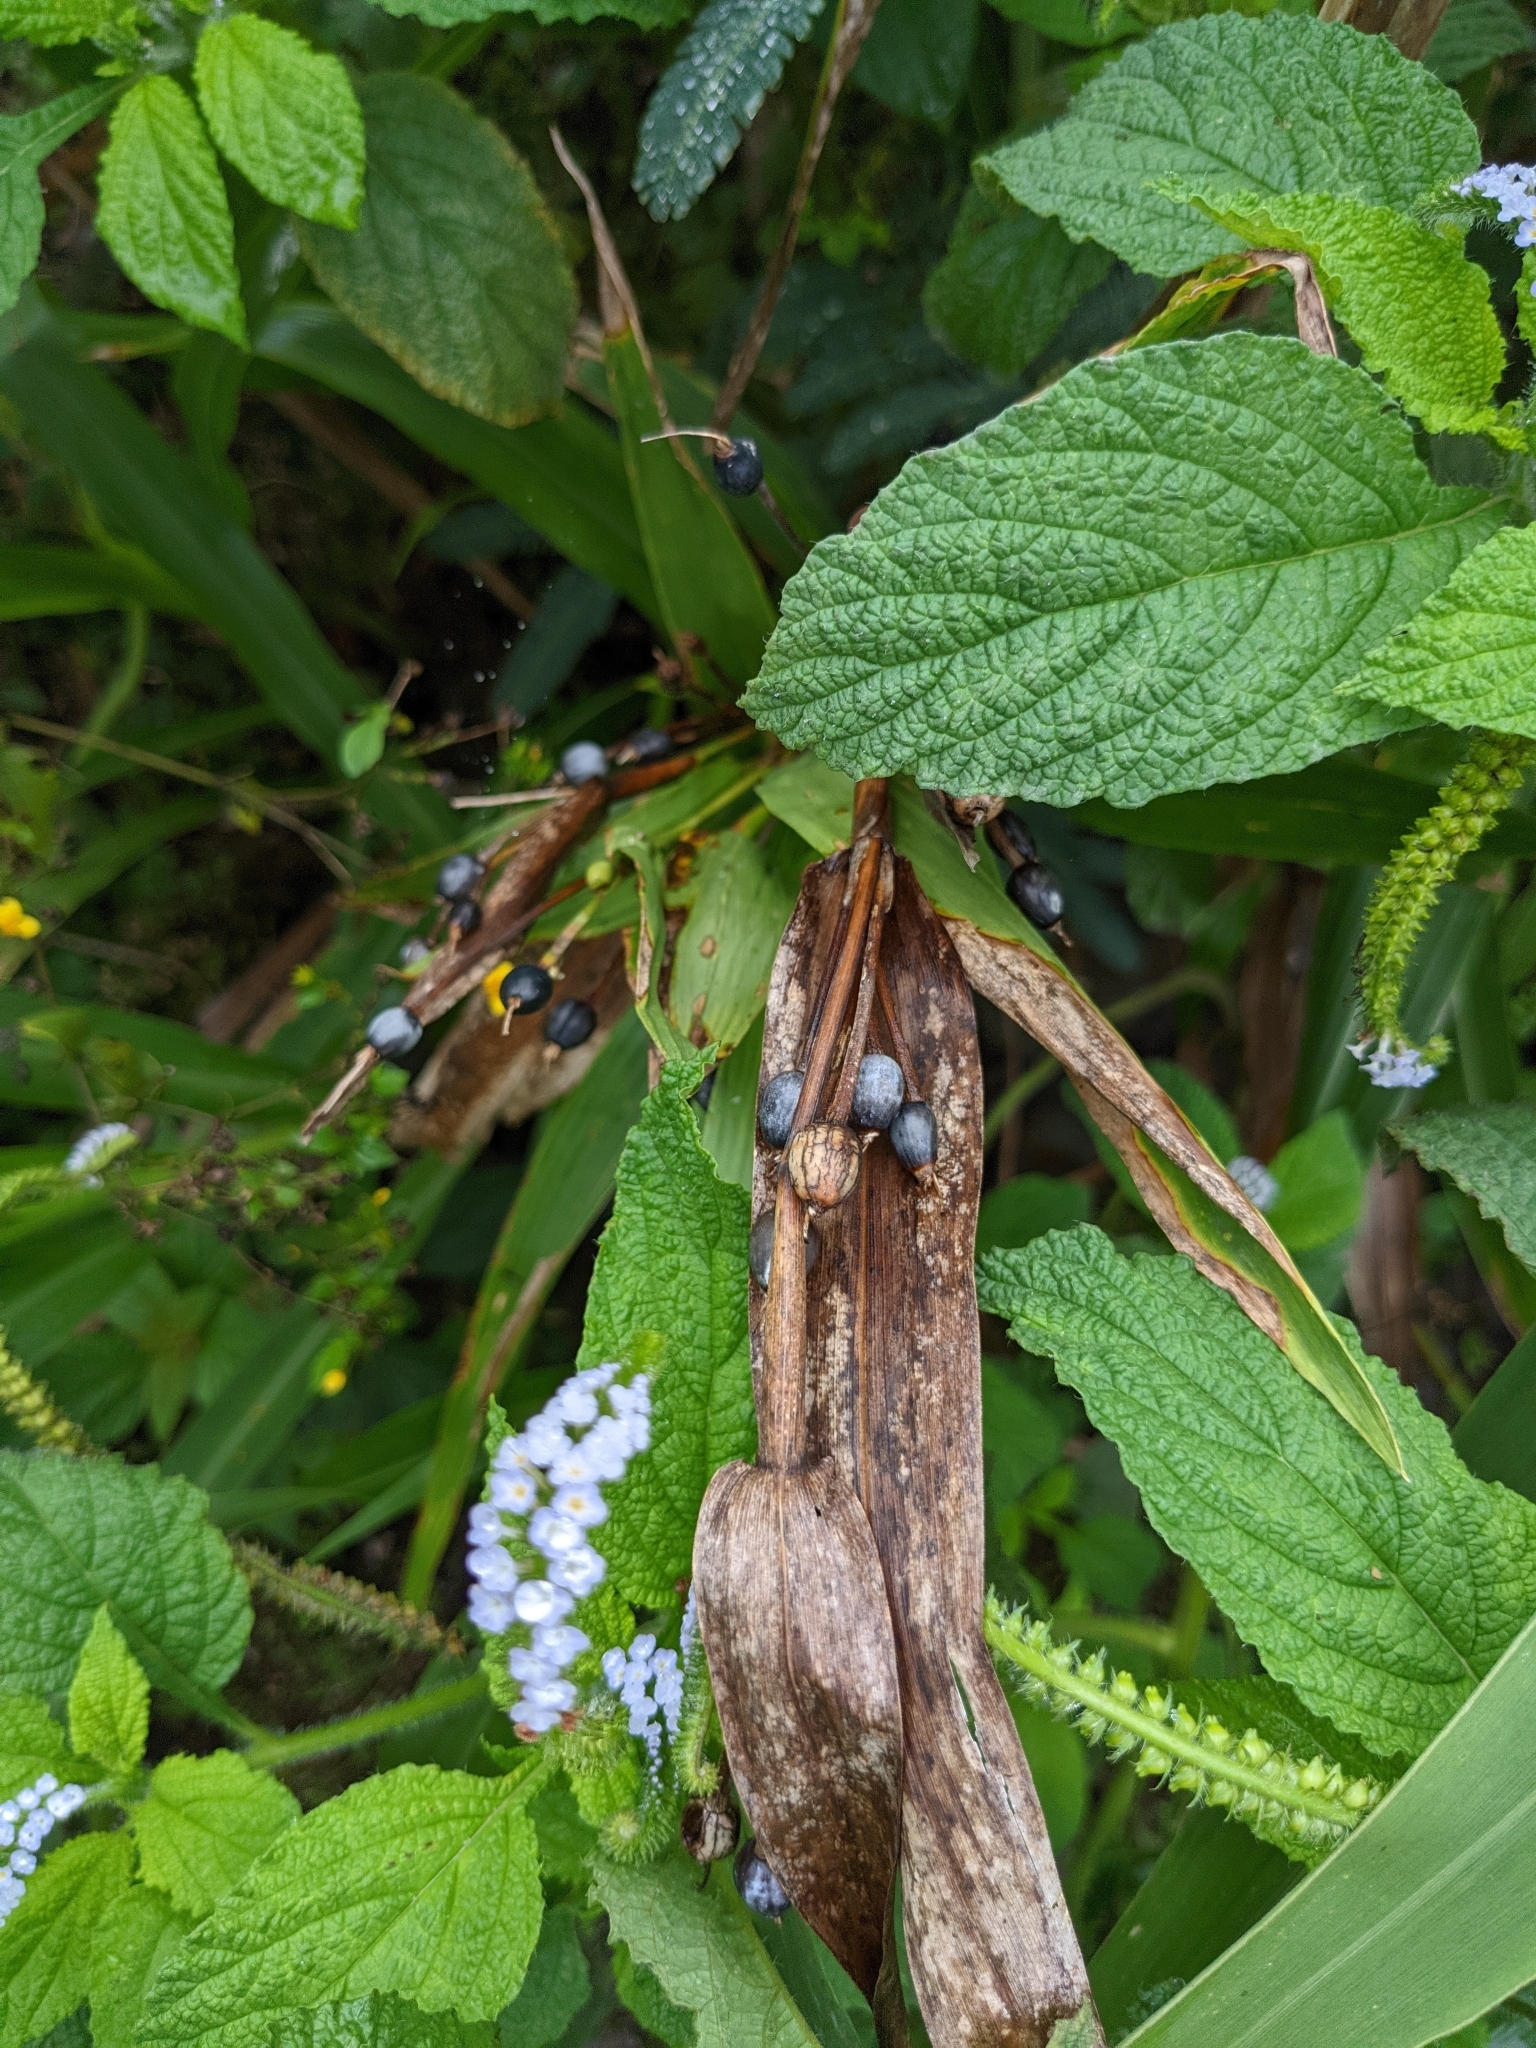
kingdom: Plantae
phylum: Tracheophyta
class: Liliopsida
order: Poales
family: Poaceae
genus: Coix
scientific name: Coix lacryma-jobi
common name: Job's tears
